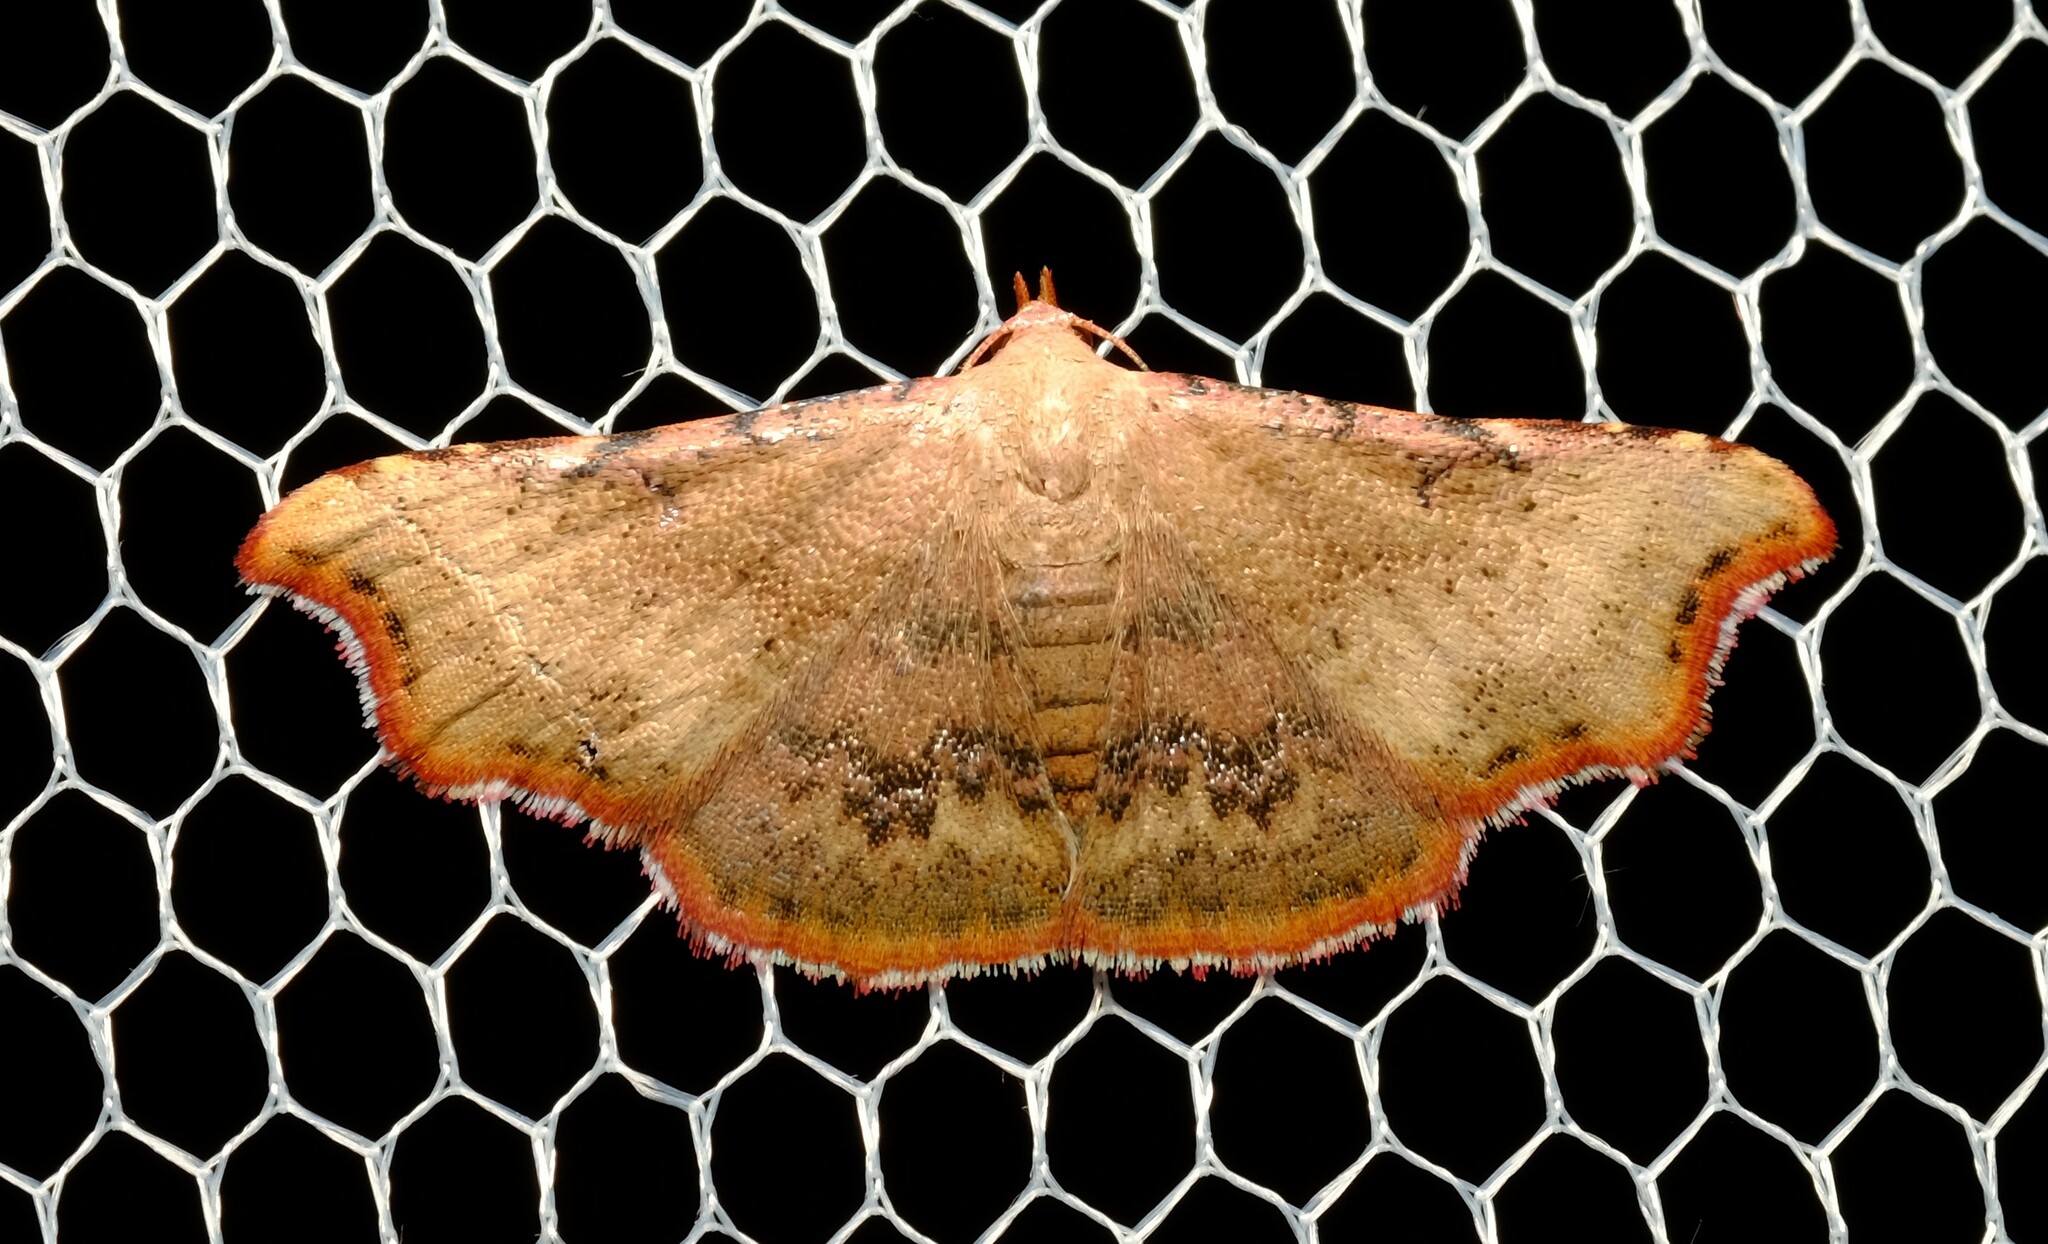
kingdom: Animalia
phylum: Arthropoda
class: Insecta
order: Lepidoptera
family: Erebidae
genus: Corgatha
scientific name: Corgatha dipyra
